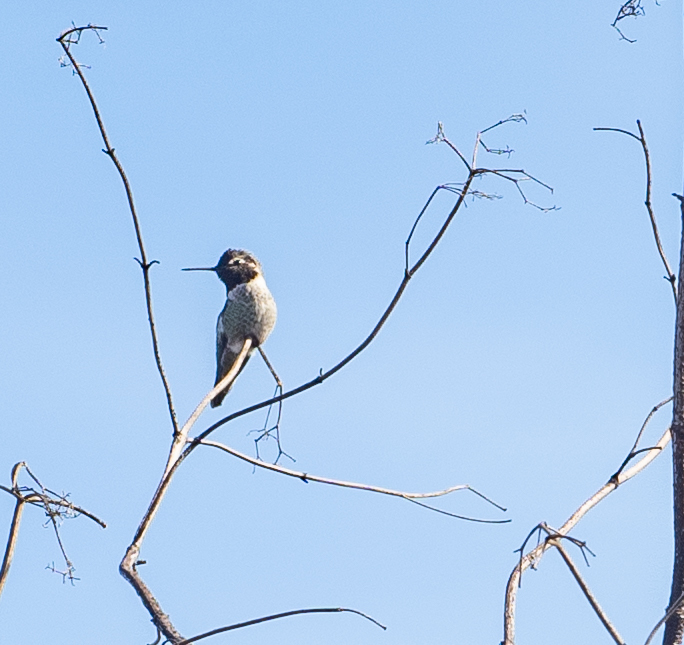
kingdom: Animalia
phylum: Chordata
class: Aves
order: Apodiformes
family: Trochilidae
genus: Calypte
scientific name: Calypte anna
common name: Anna's hummingbird
